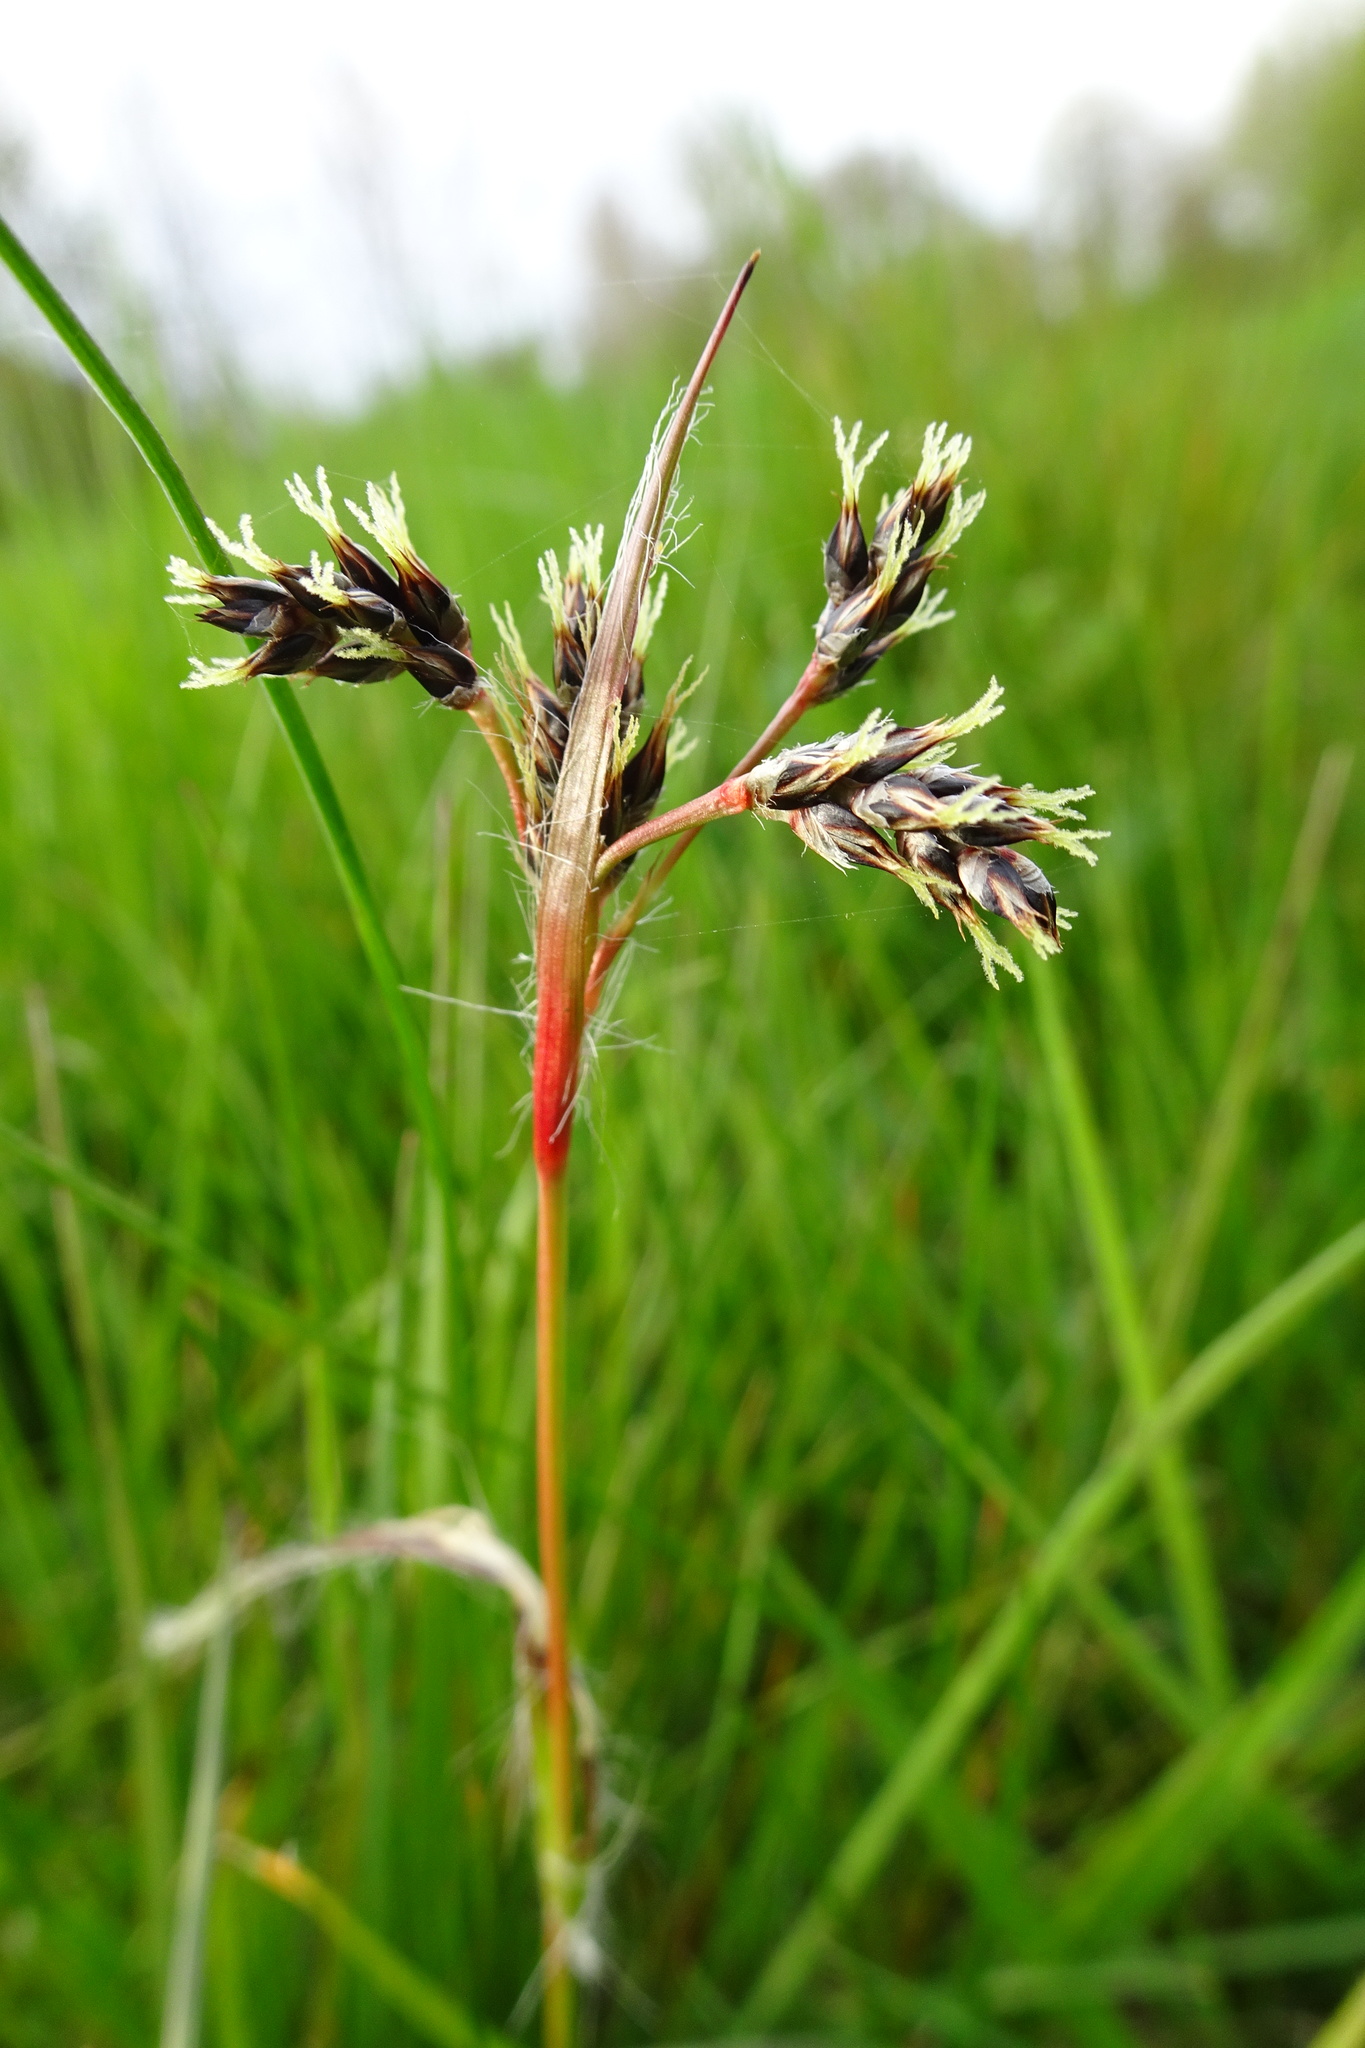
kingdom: Plantae
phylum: Tracheophyta
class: Liliopsida
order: Poales
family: Juncaceae
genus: Luzula
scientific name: Luzula campestris
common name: Field wood-rush
